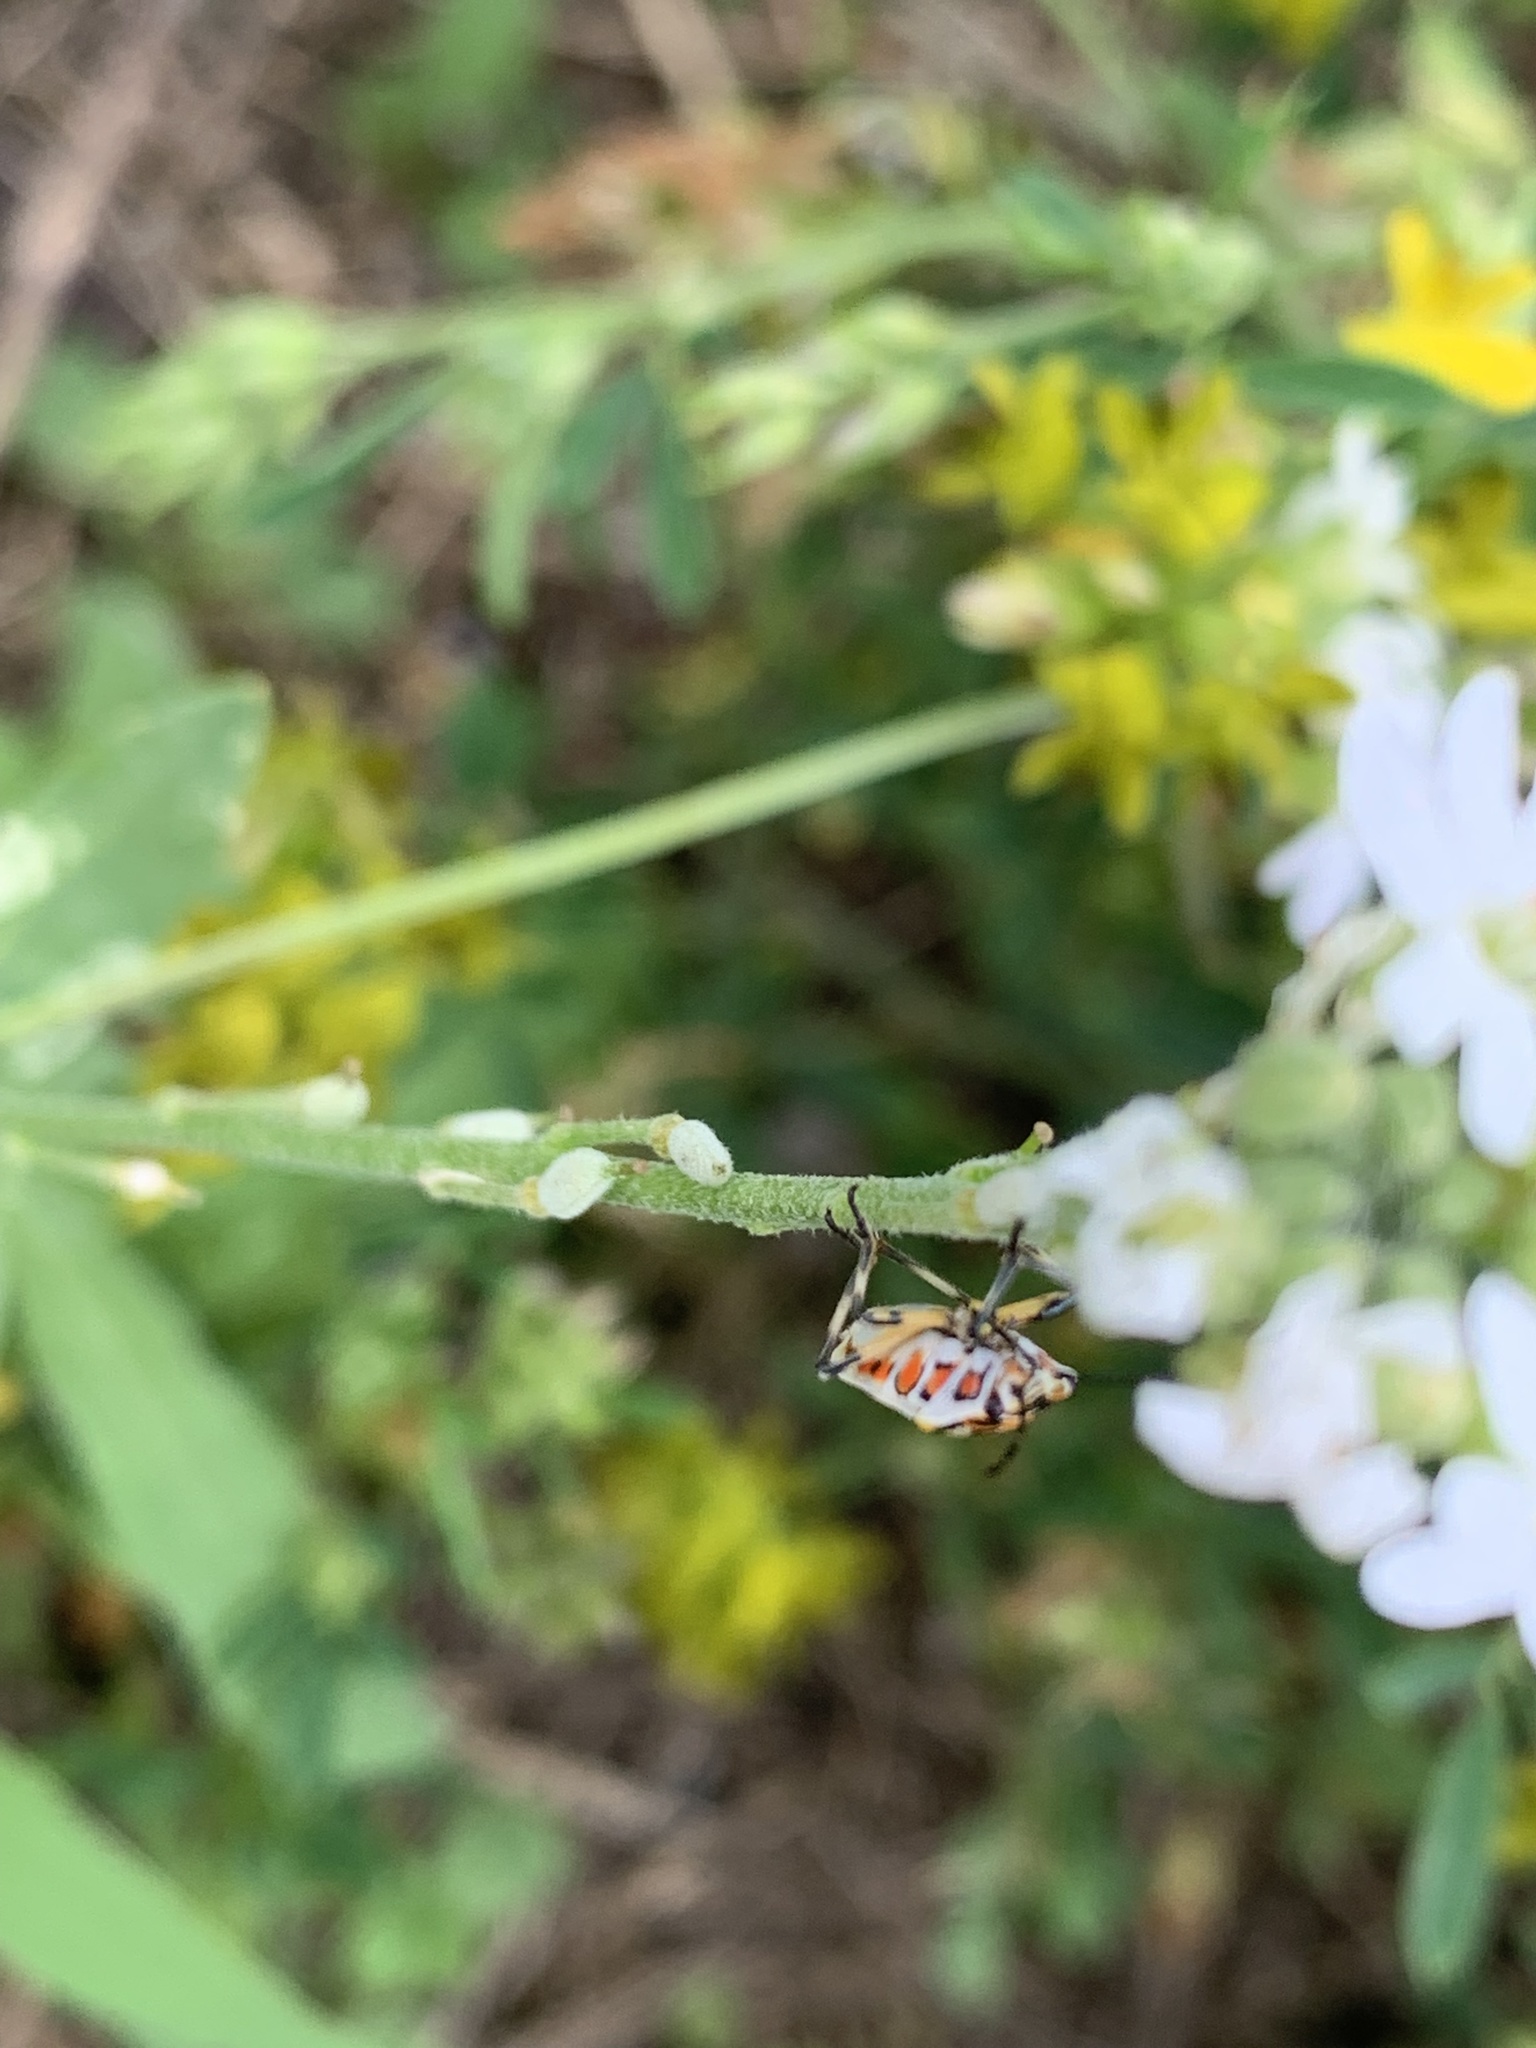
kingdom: Animalia
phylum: Arthropoda
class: Insecta
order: Hemiptera
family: Pentatomidae
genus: Eurydema
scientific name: Eurydema ornata
